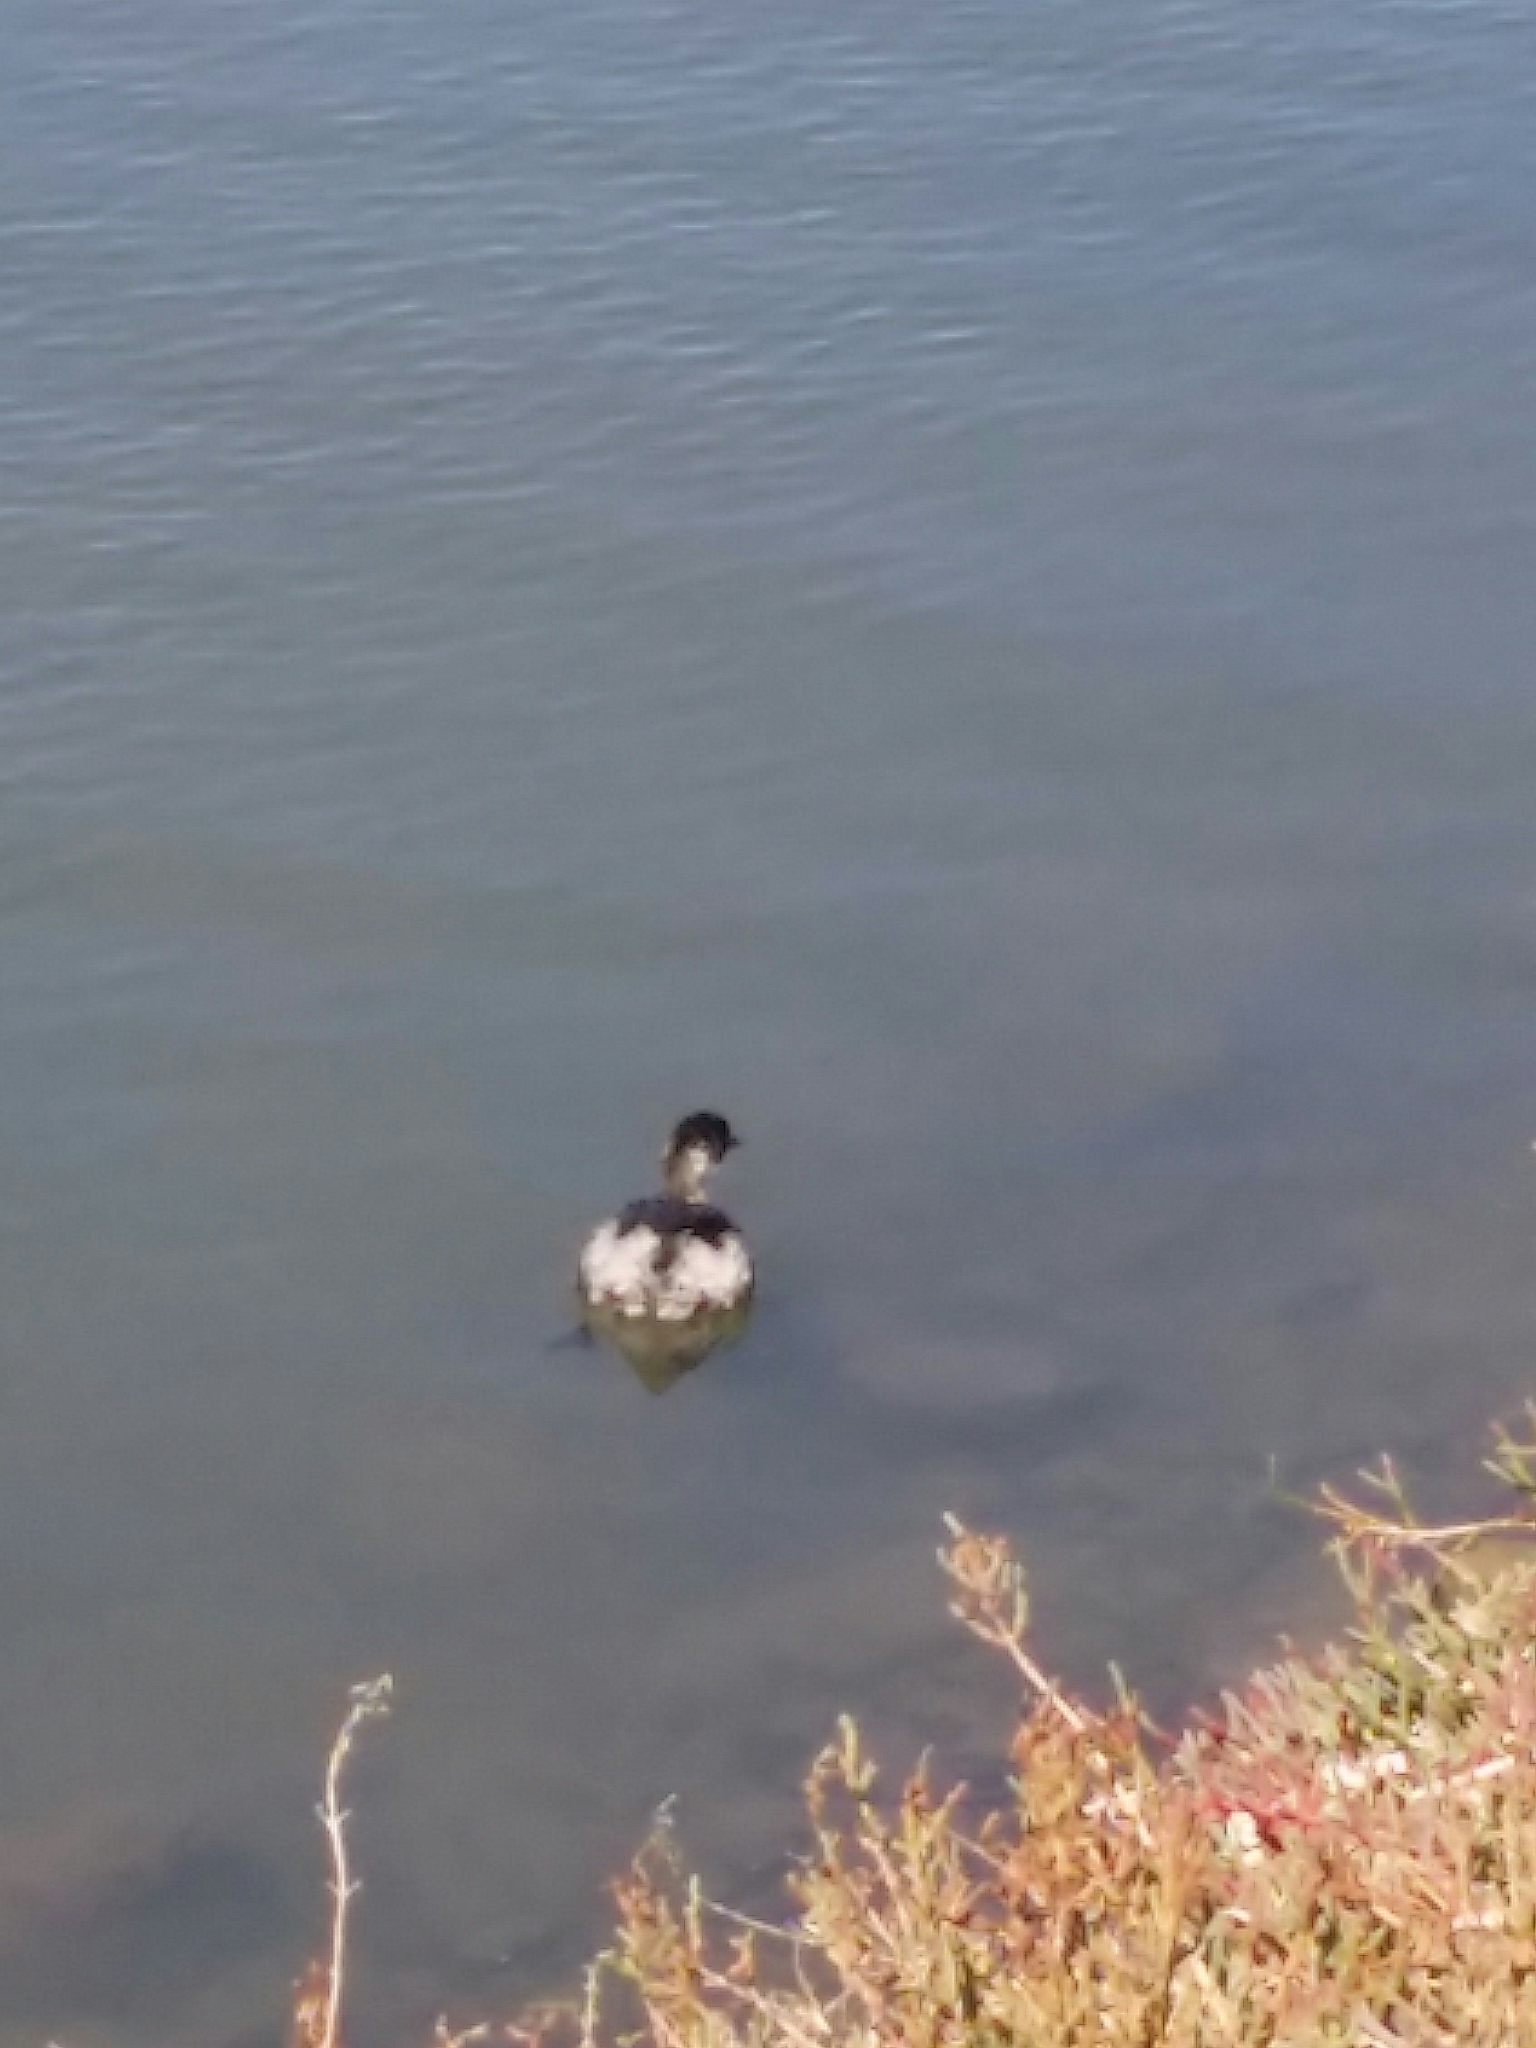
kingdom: Animalia
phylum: Chordata
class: Aves
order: Podicipediformes
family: Podicipedidae
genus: Podiceps
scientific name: Podiceps nigricollis
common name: Black-necked grebe
